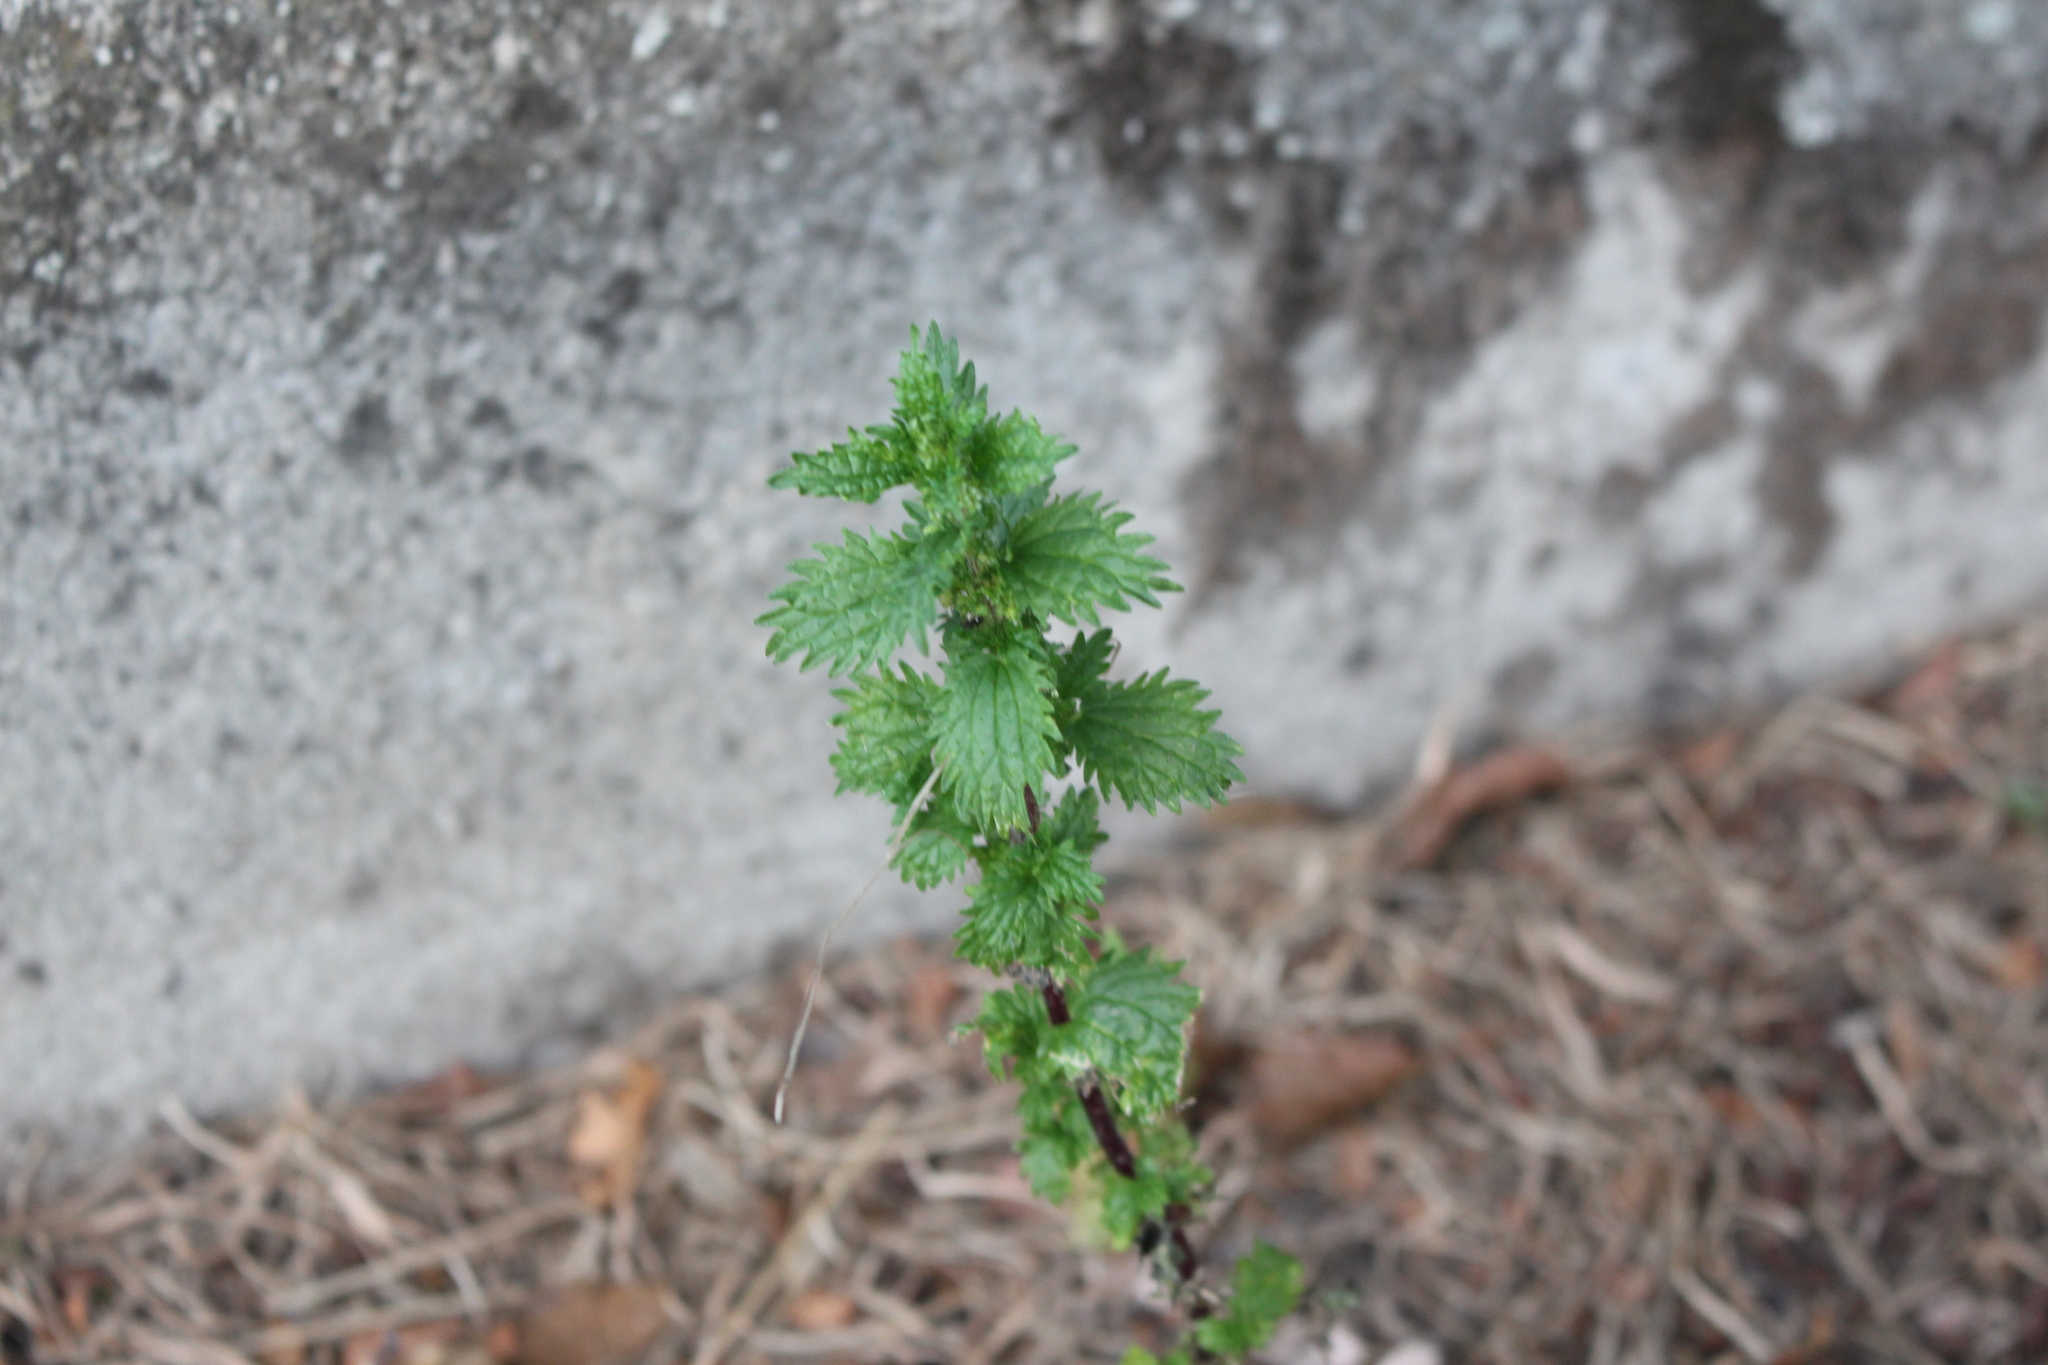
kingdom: Plantae
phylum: Tracheophyta
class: Magnoliopsida
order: Rosales
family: Urticaceae
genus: Urtica
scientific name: Urtica urens
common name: Dwarf nettle
